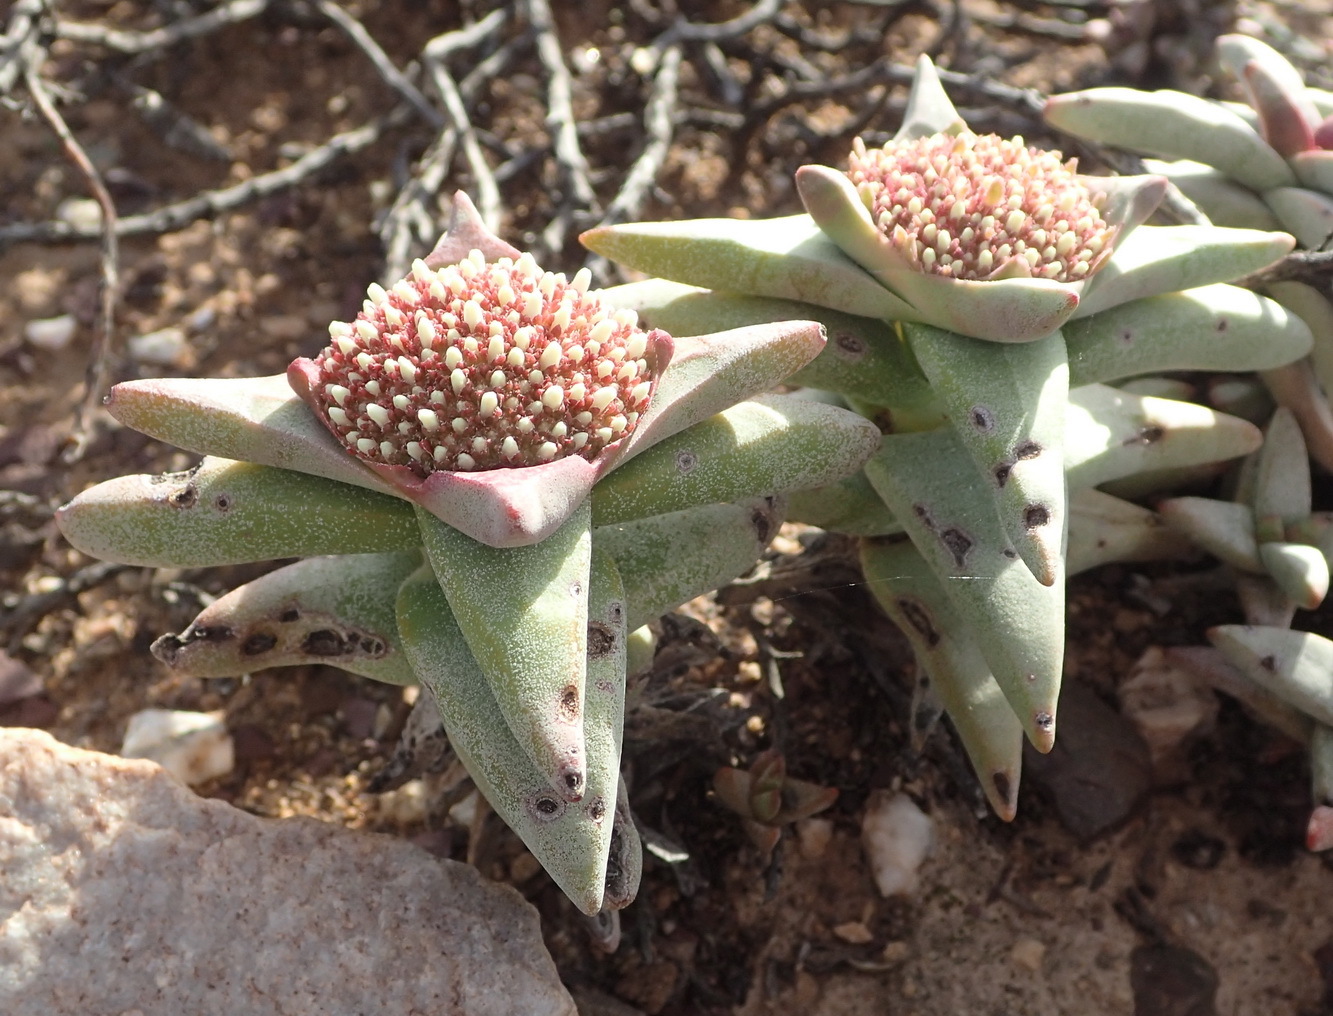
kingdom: Plantae
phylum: Tracheophyta
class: Magnoliopsida
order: Saxifragales
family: Crassulaceae
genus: Crassula
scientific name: Crassula congesta
